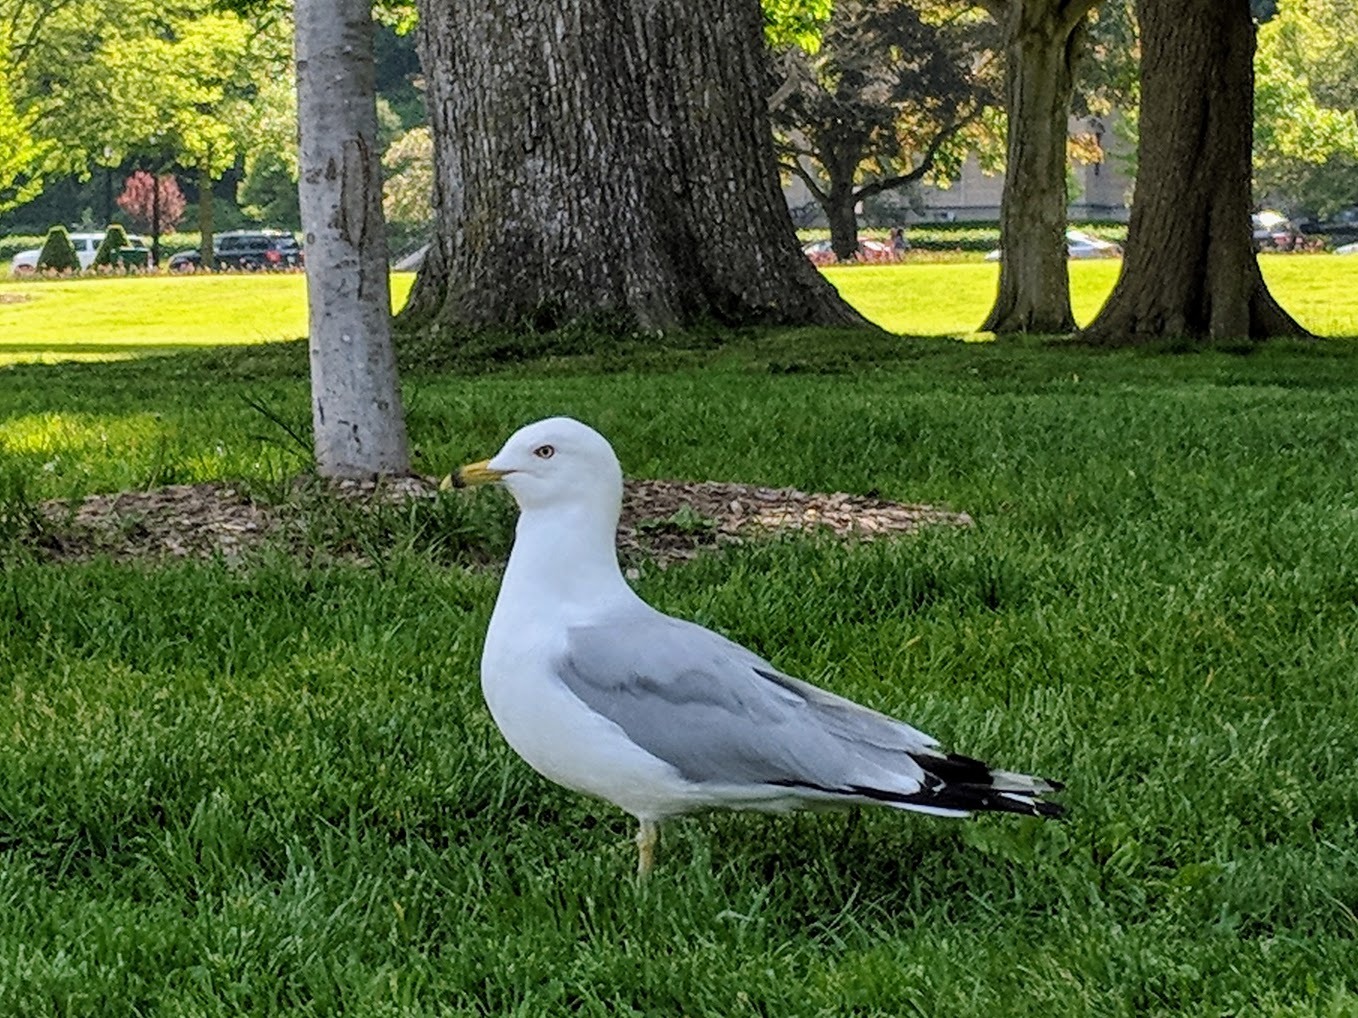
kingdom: Animalia
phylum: Chordata
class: Aves
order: Charadriiformes
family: Laridae
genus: Larus
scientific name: Larus delawarensis
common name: Ring-billed gull
